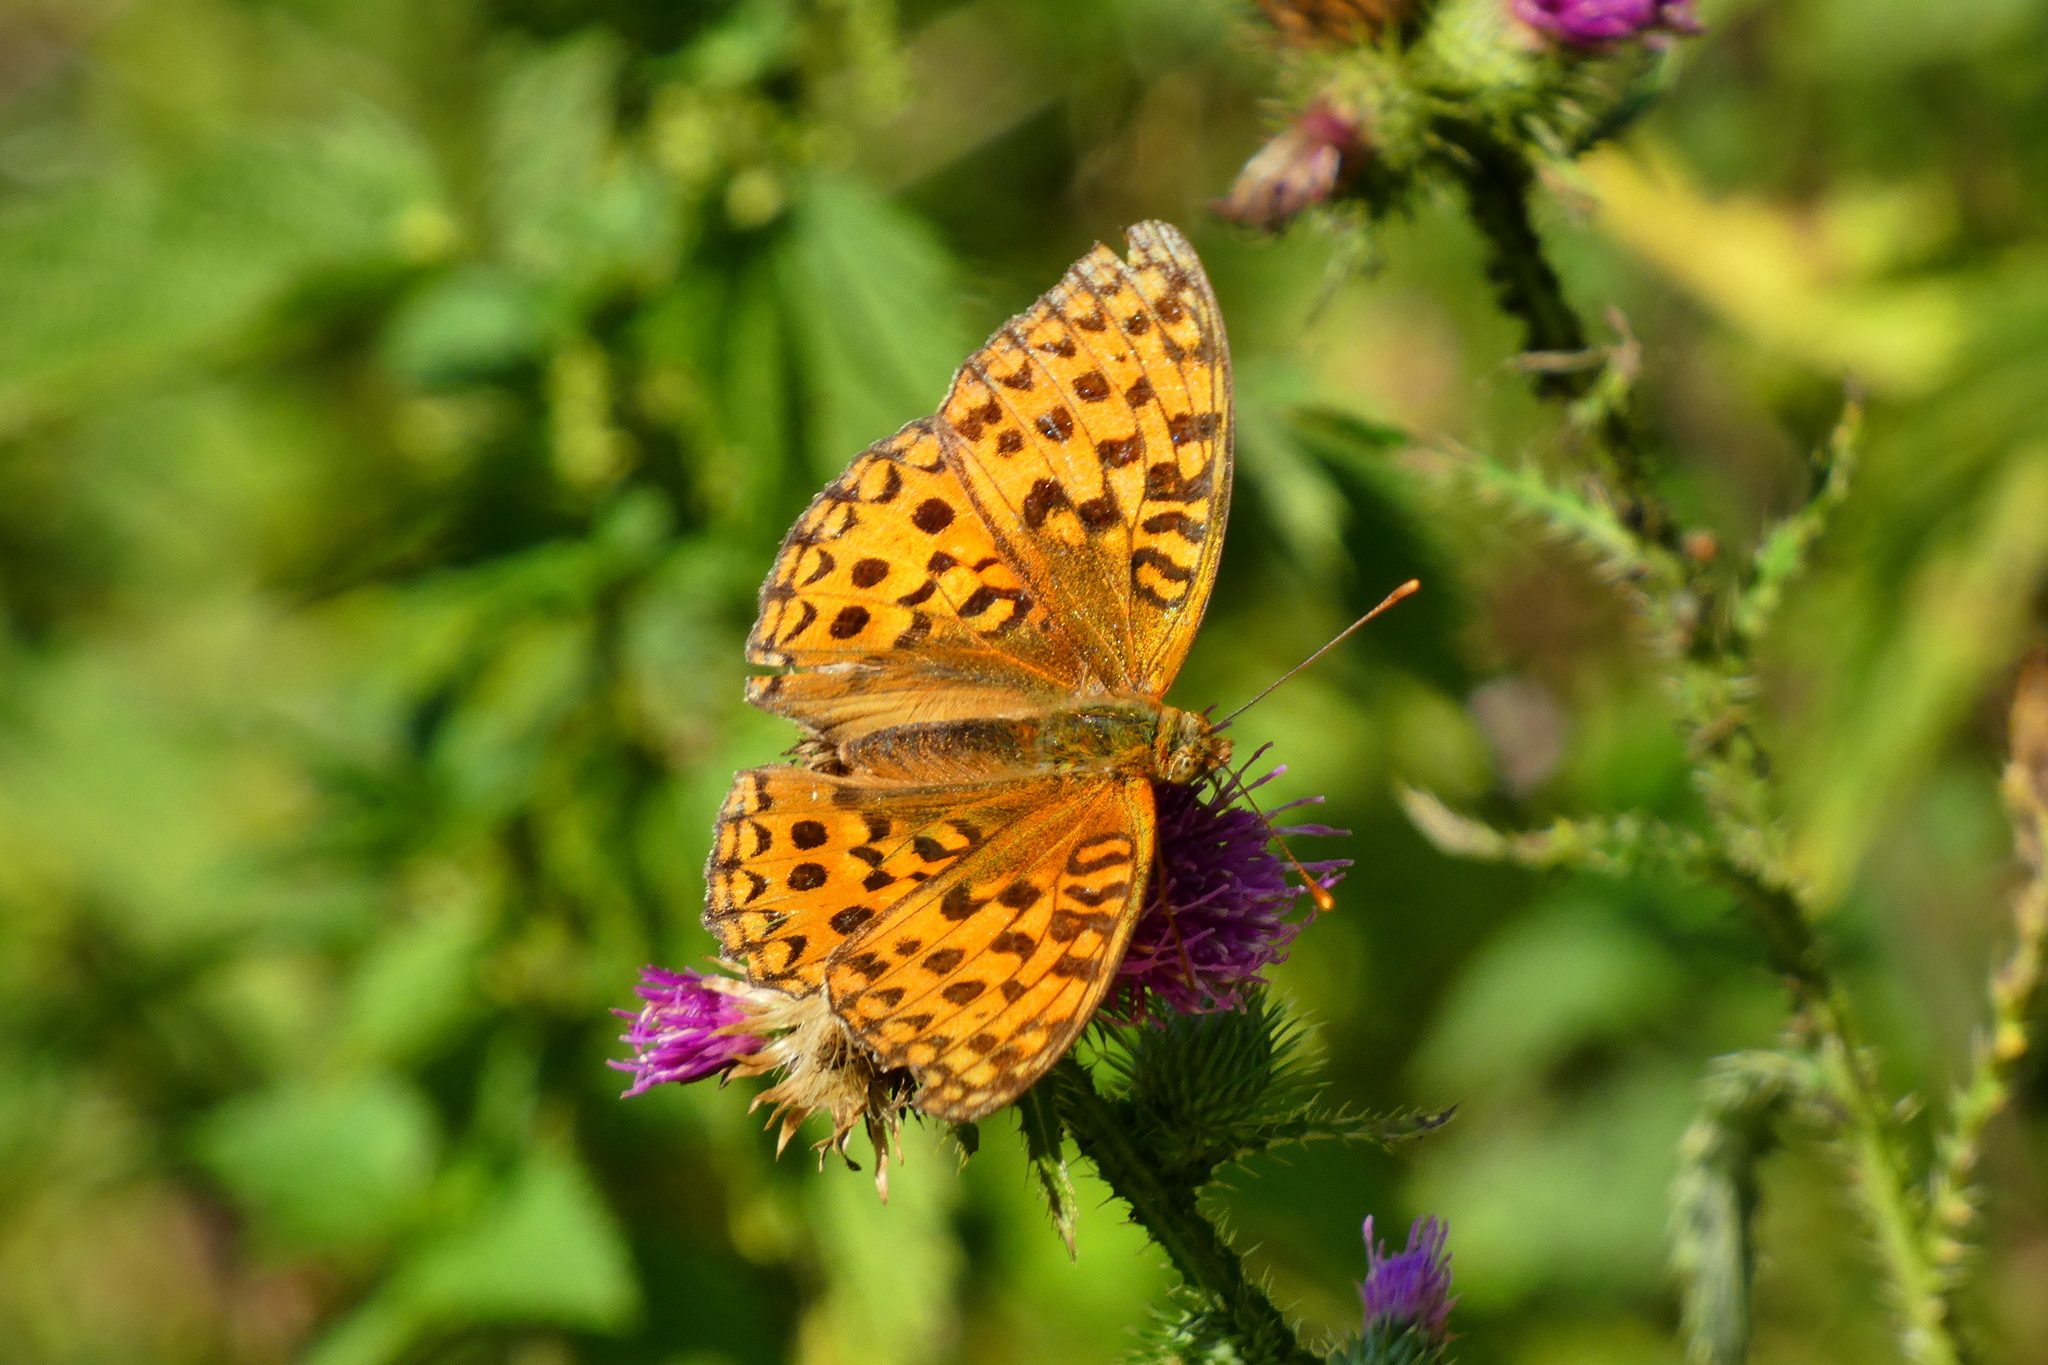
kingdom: Animalia
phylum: Arthropoda
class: Insecta
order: Lepidoptera
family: Nymphalidae
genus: Fabriciana
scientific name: Fabriciana adippe
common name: High brown fritillary
